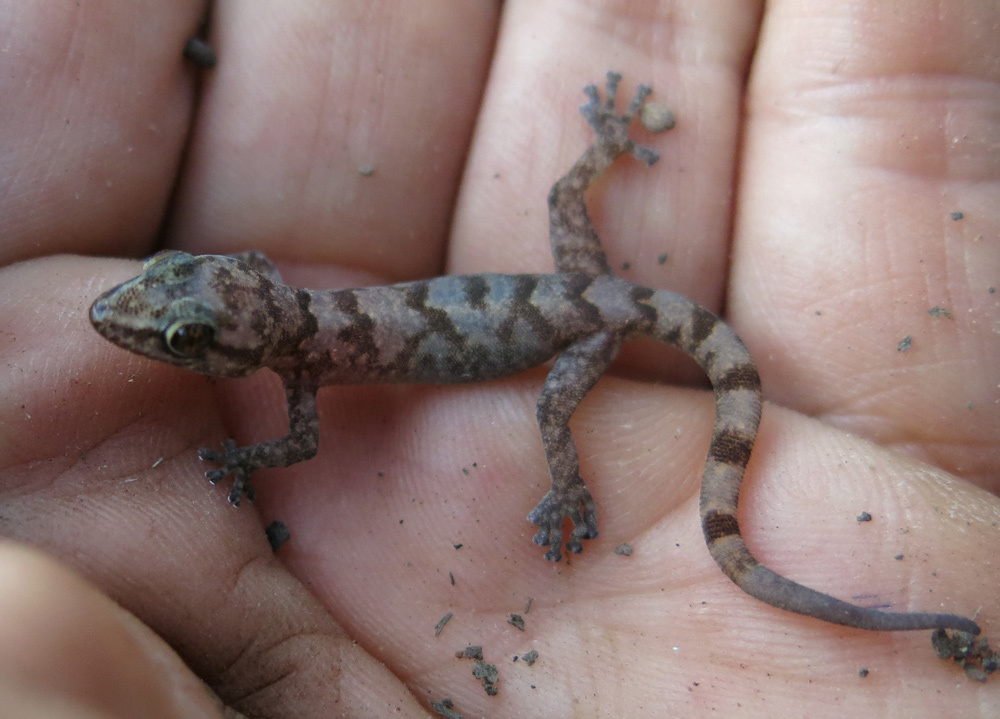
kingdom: Animalia
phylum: Chordata
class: Squamata
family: Gekkonidae
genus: Afroedura
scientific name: Afroedura pienaari
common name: Pienaar’s rock gecko
